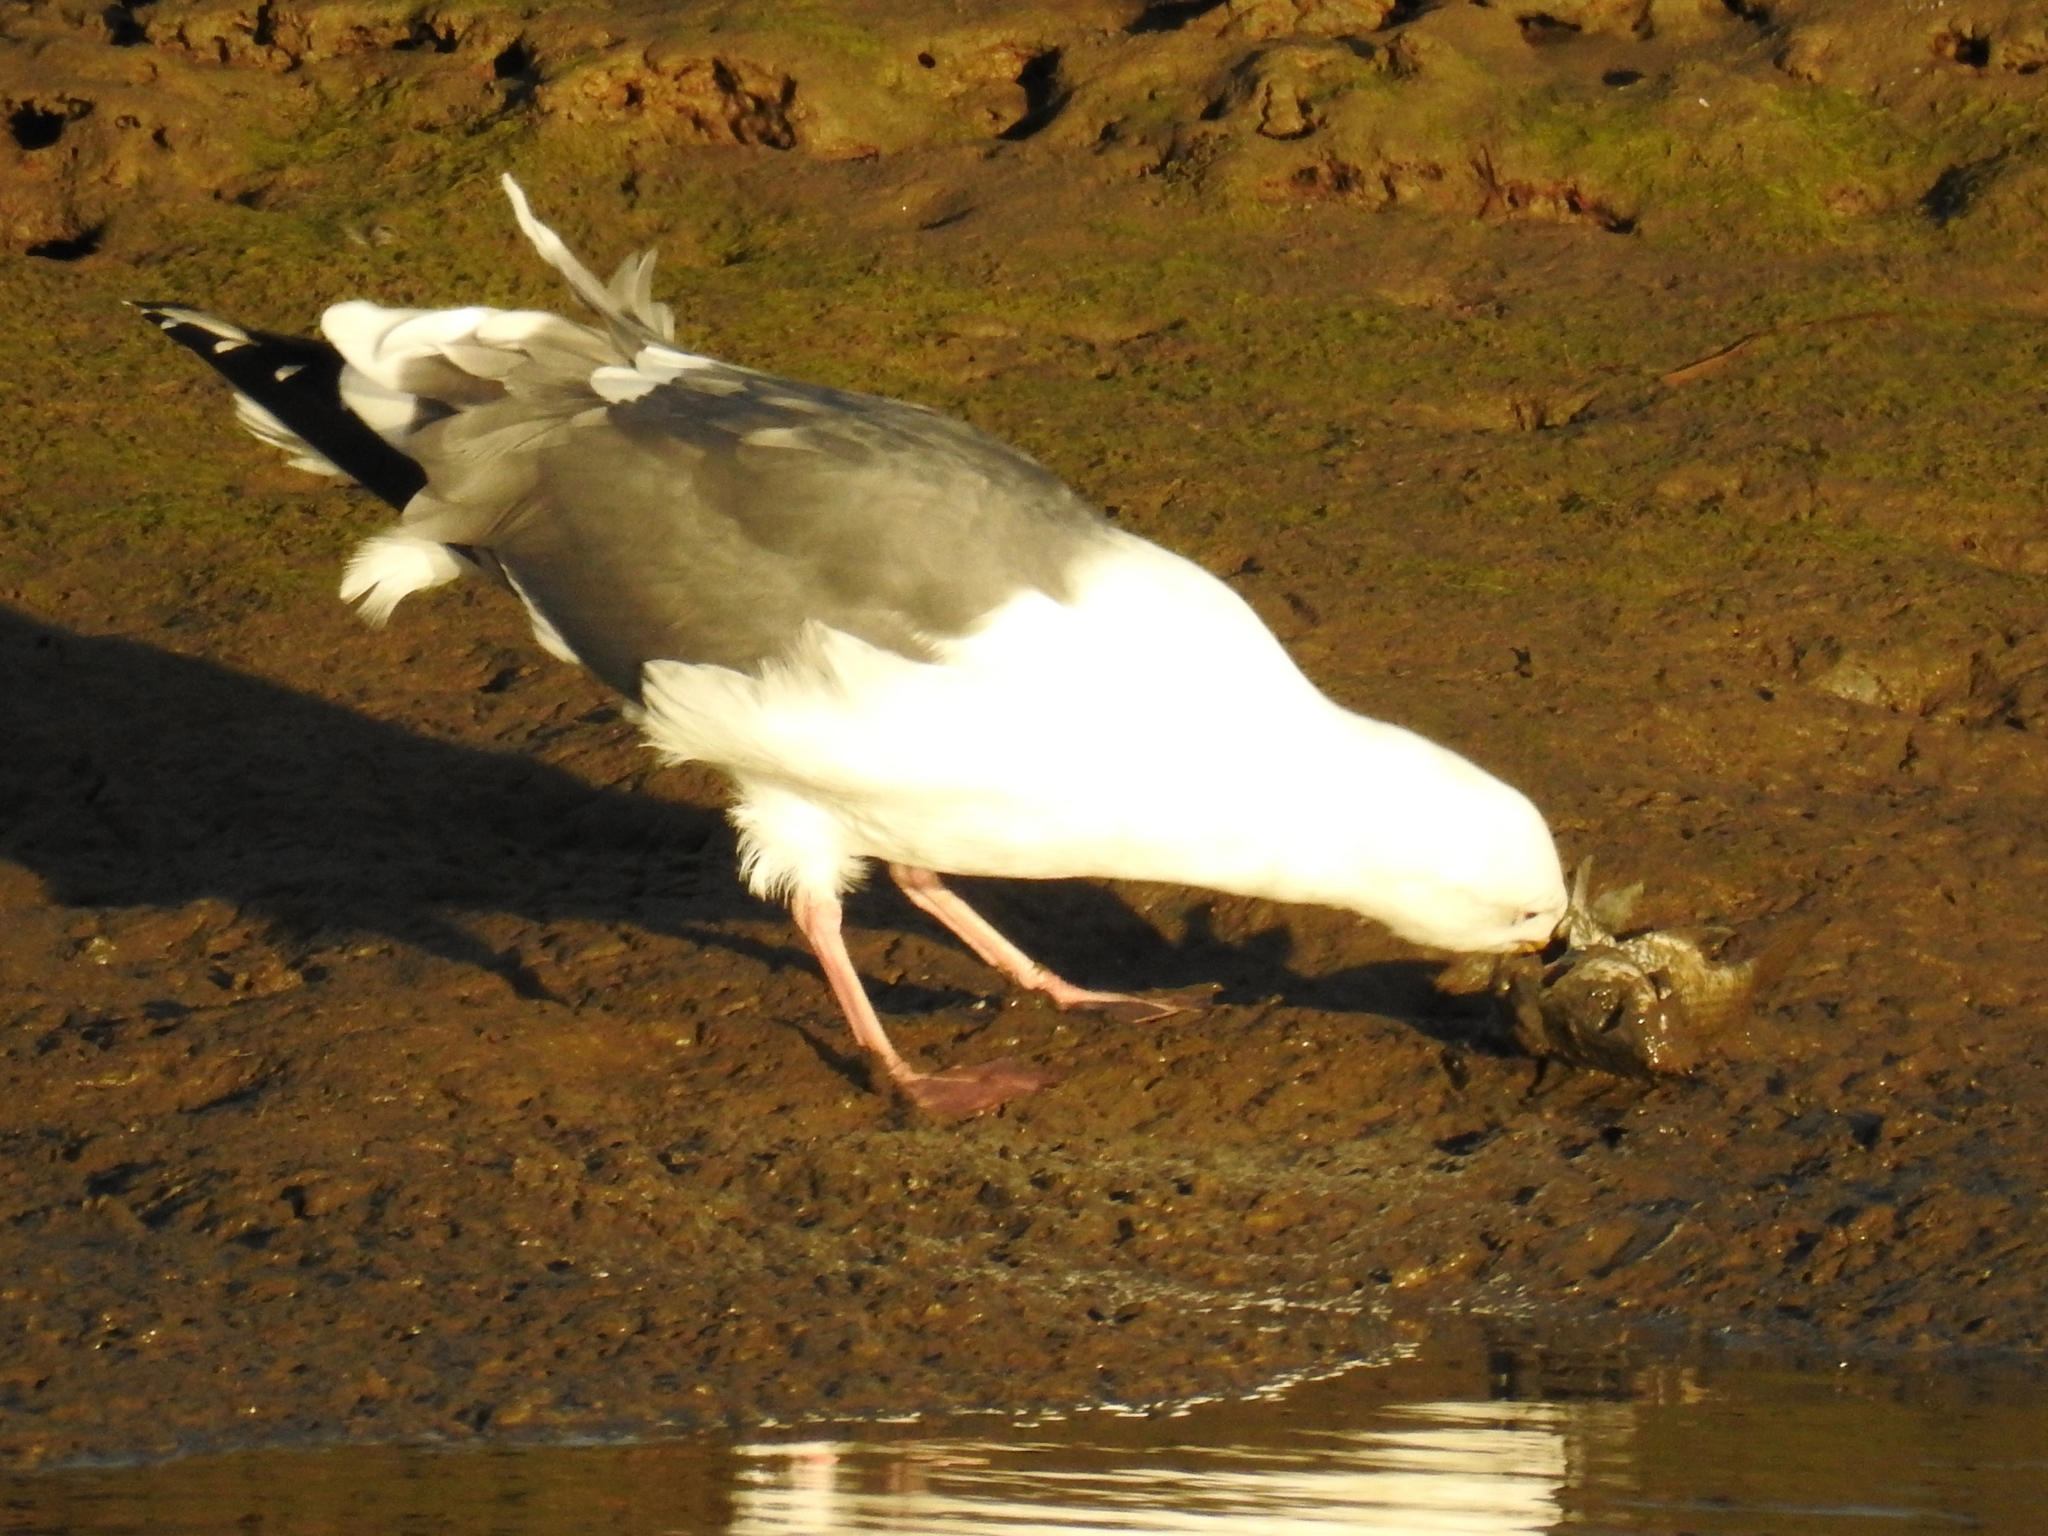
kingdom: Animalia
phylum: Chordata
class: Aves
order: Charadriiformes
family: Laridae
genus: Larus
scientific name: Larus occidentalis
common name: Western gull
